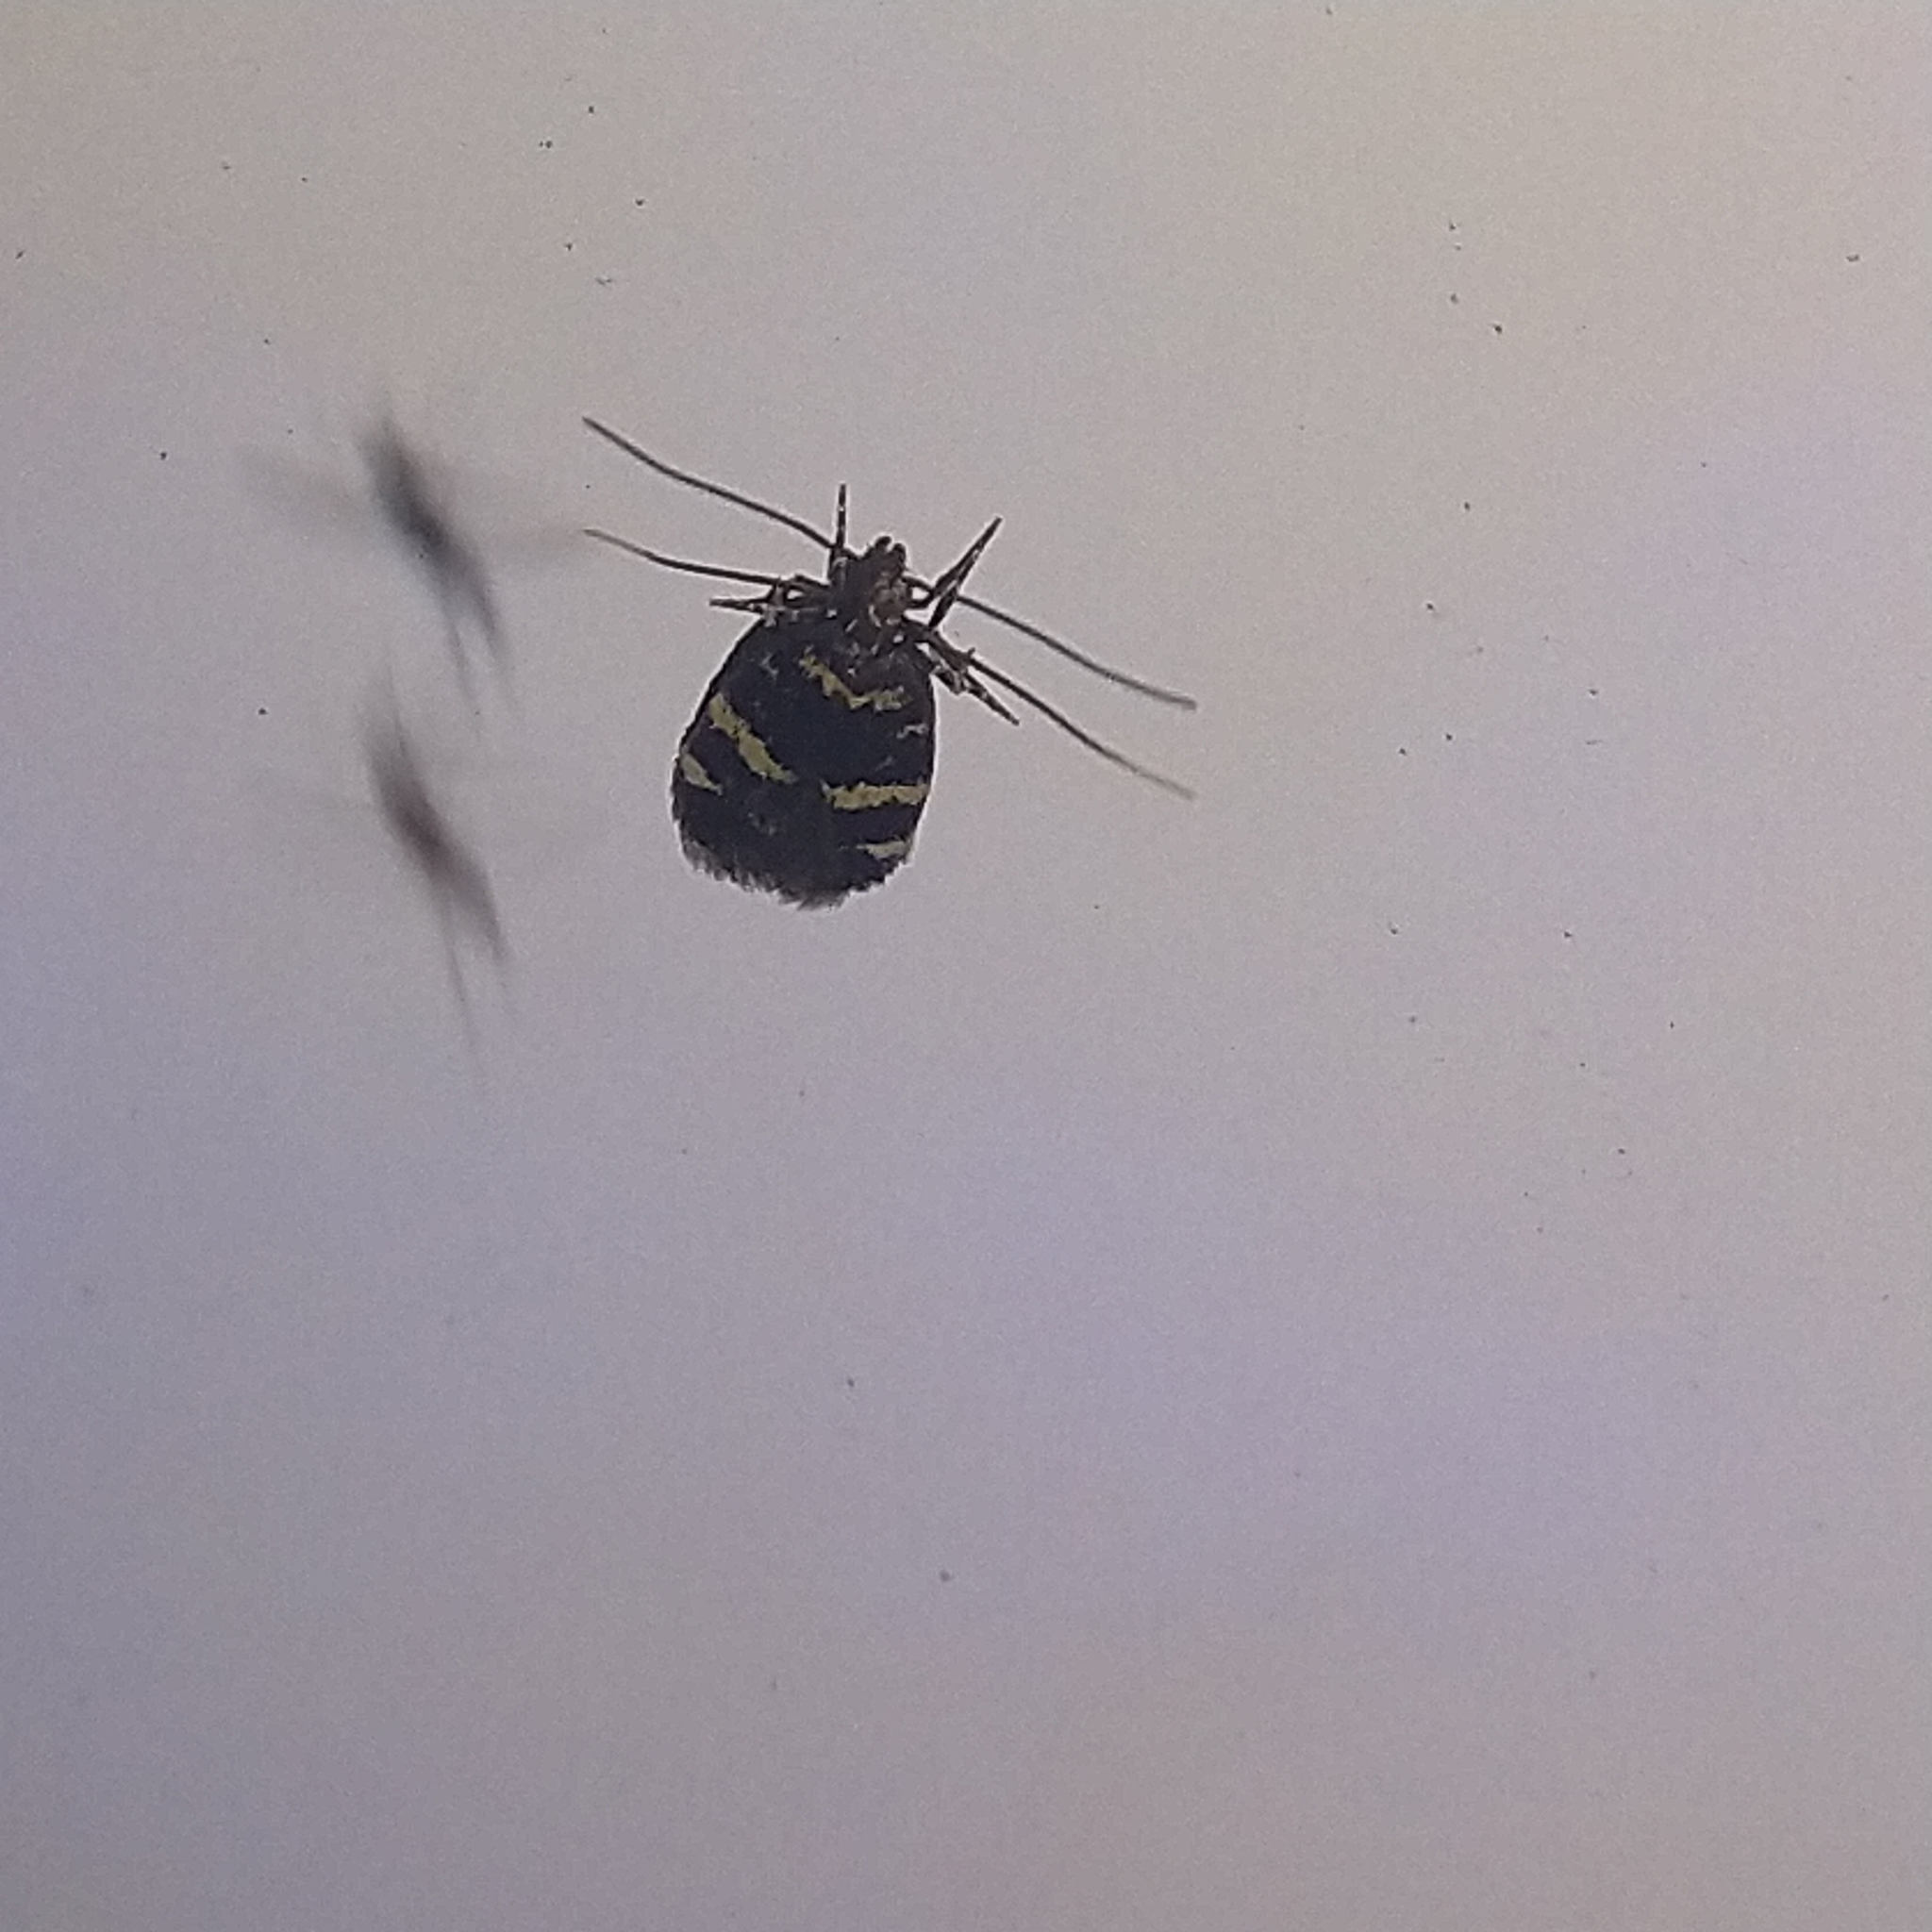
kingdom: Animalia
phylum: Arthropoda
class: Insecta
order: Lepidoptera
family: Autostichidae
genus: Oegoconia
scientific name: Oegoconia quadripuncta
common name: Four-spotted obscure
